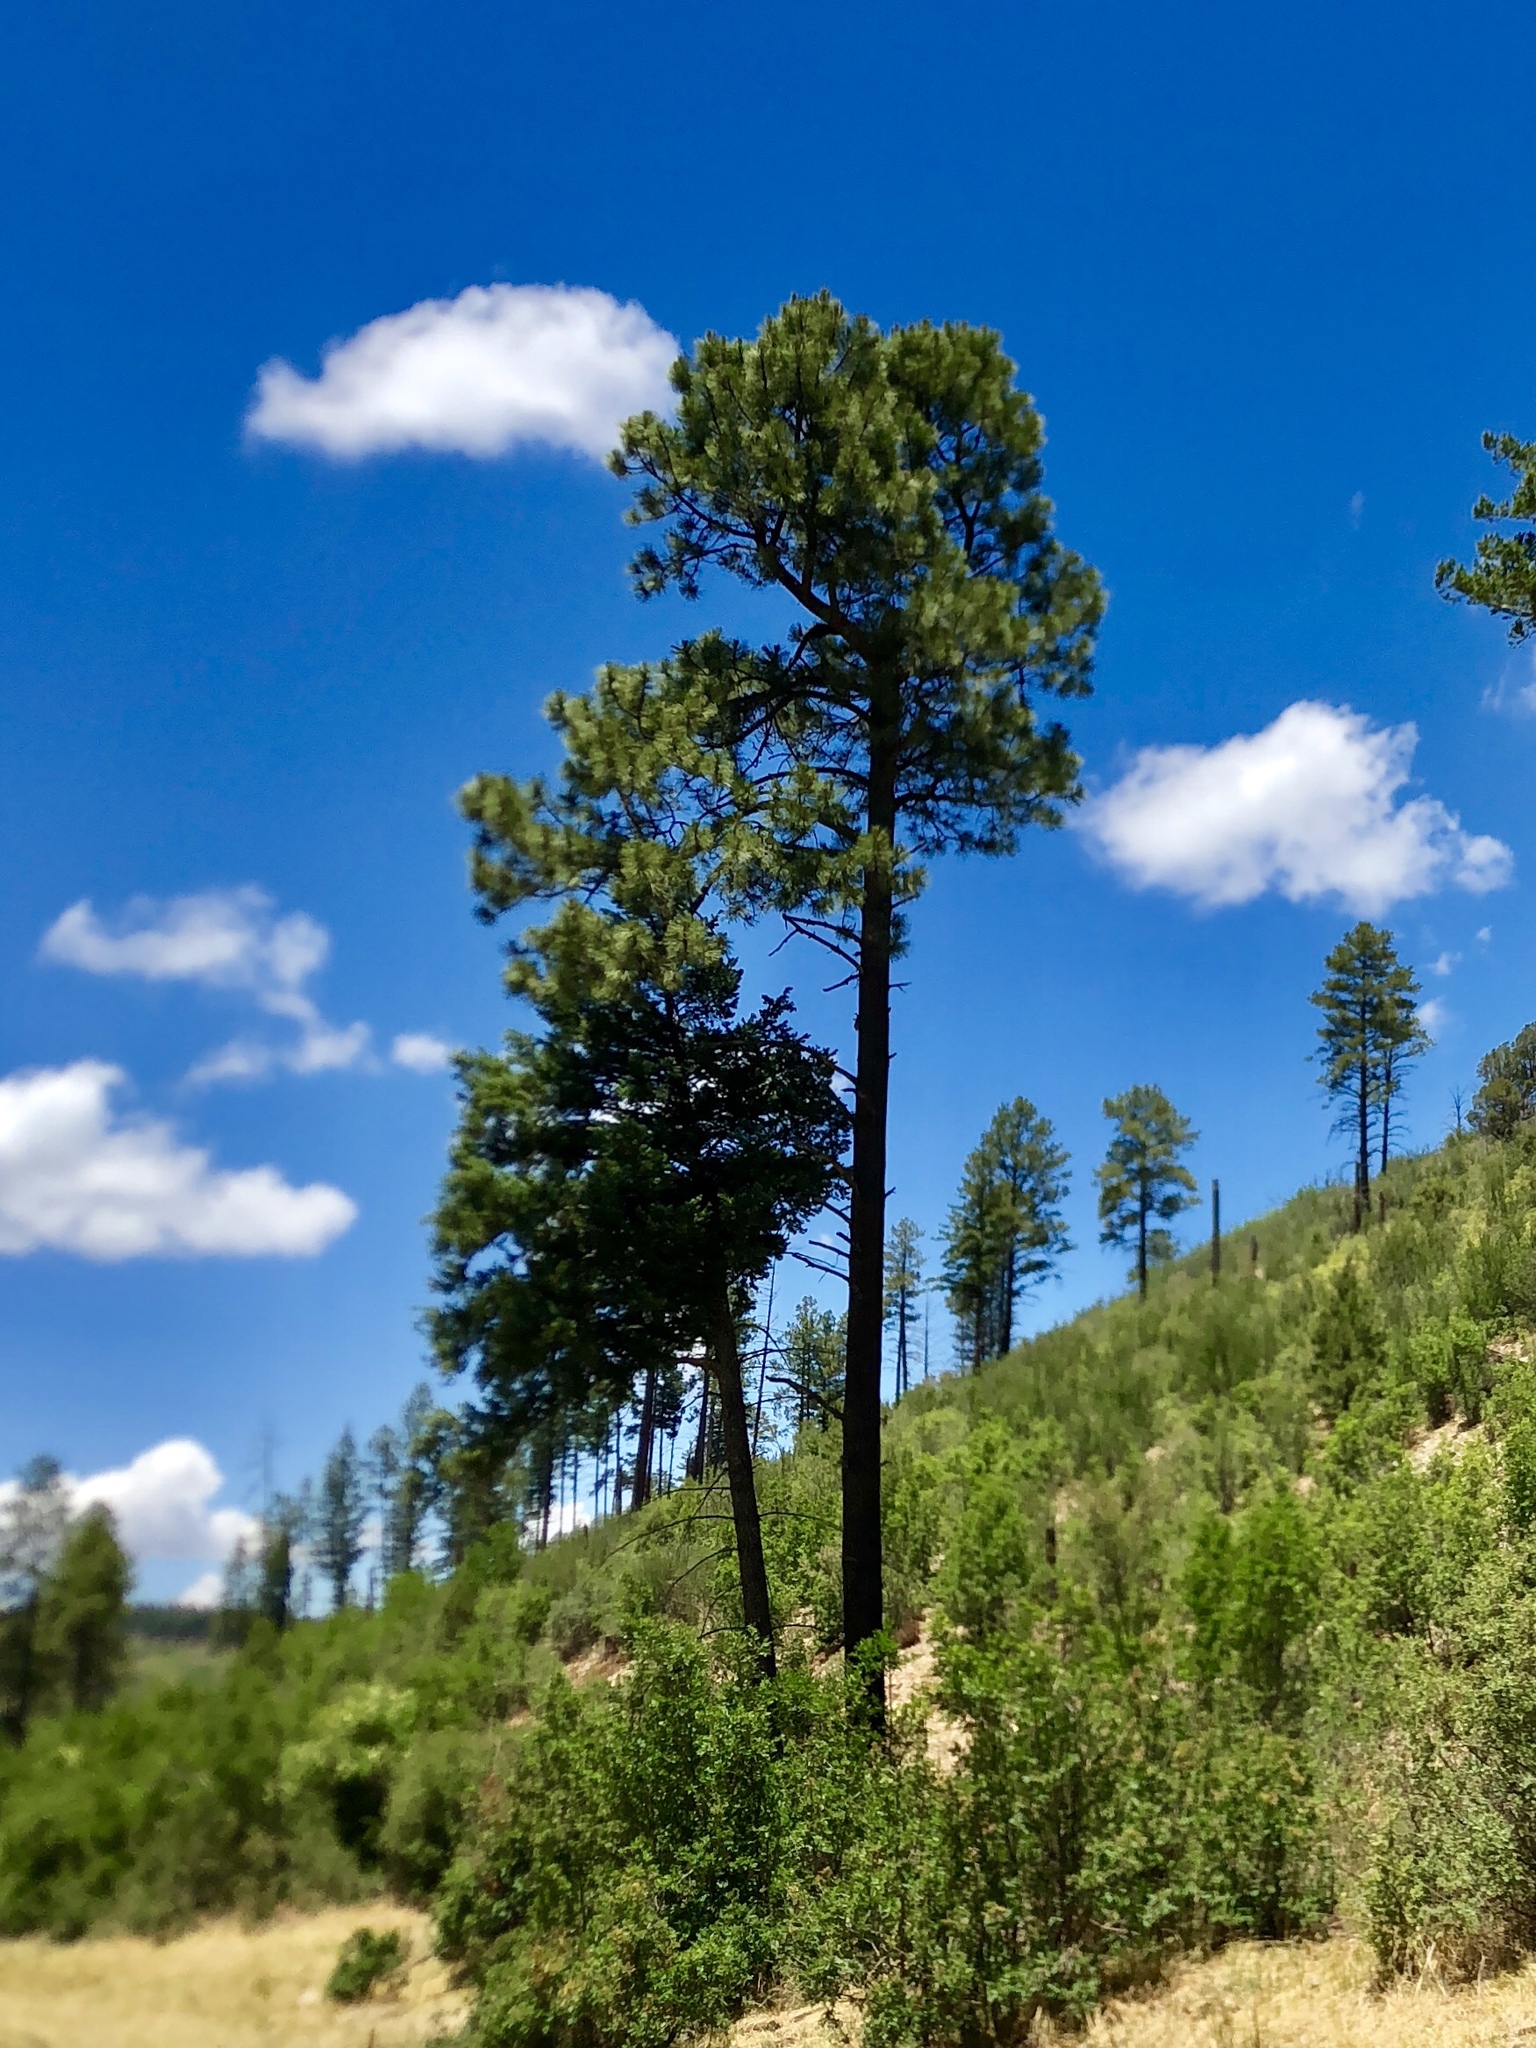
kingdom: Plantae
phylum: Tracheophyta
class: Pinopsida
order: Pinales
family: Pinaceae
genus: Pinus
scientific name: Pinus ponderosa
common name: Western yellow-pine
